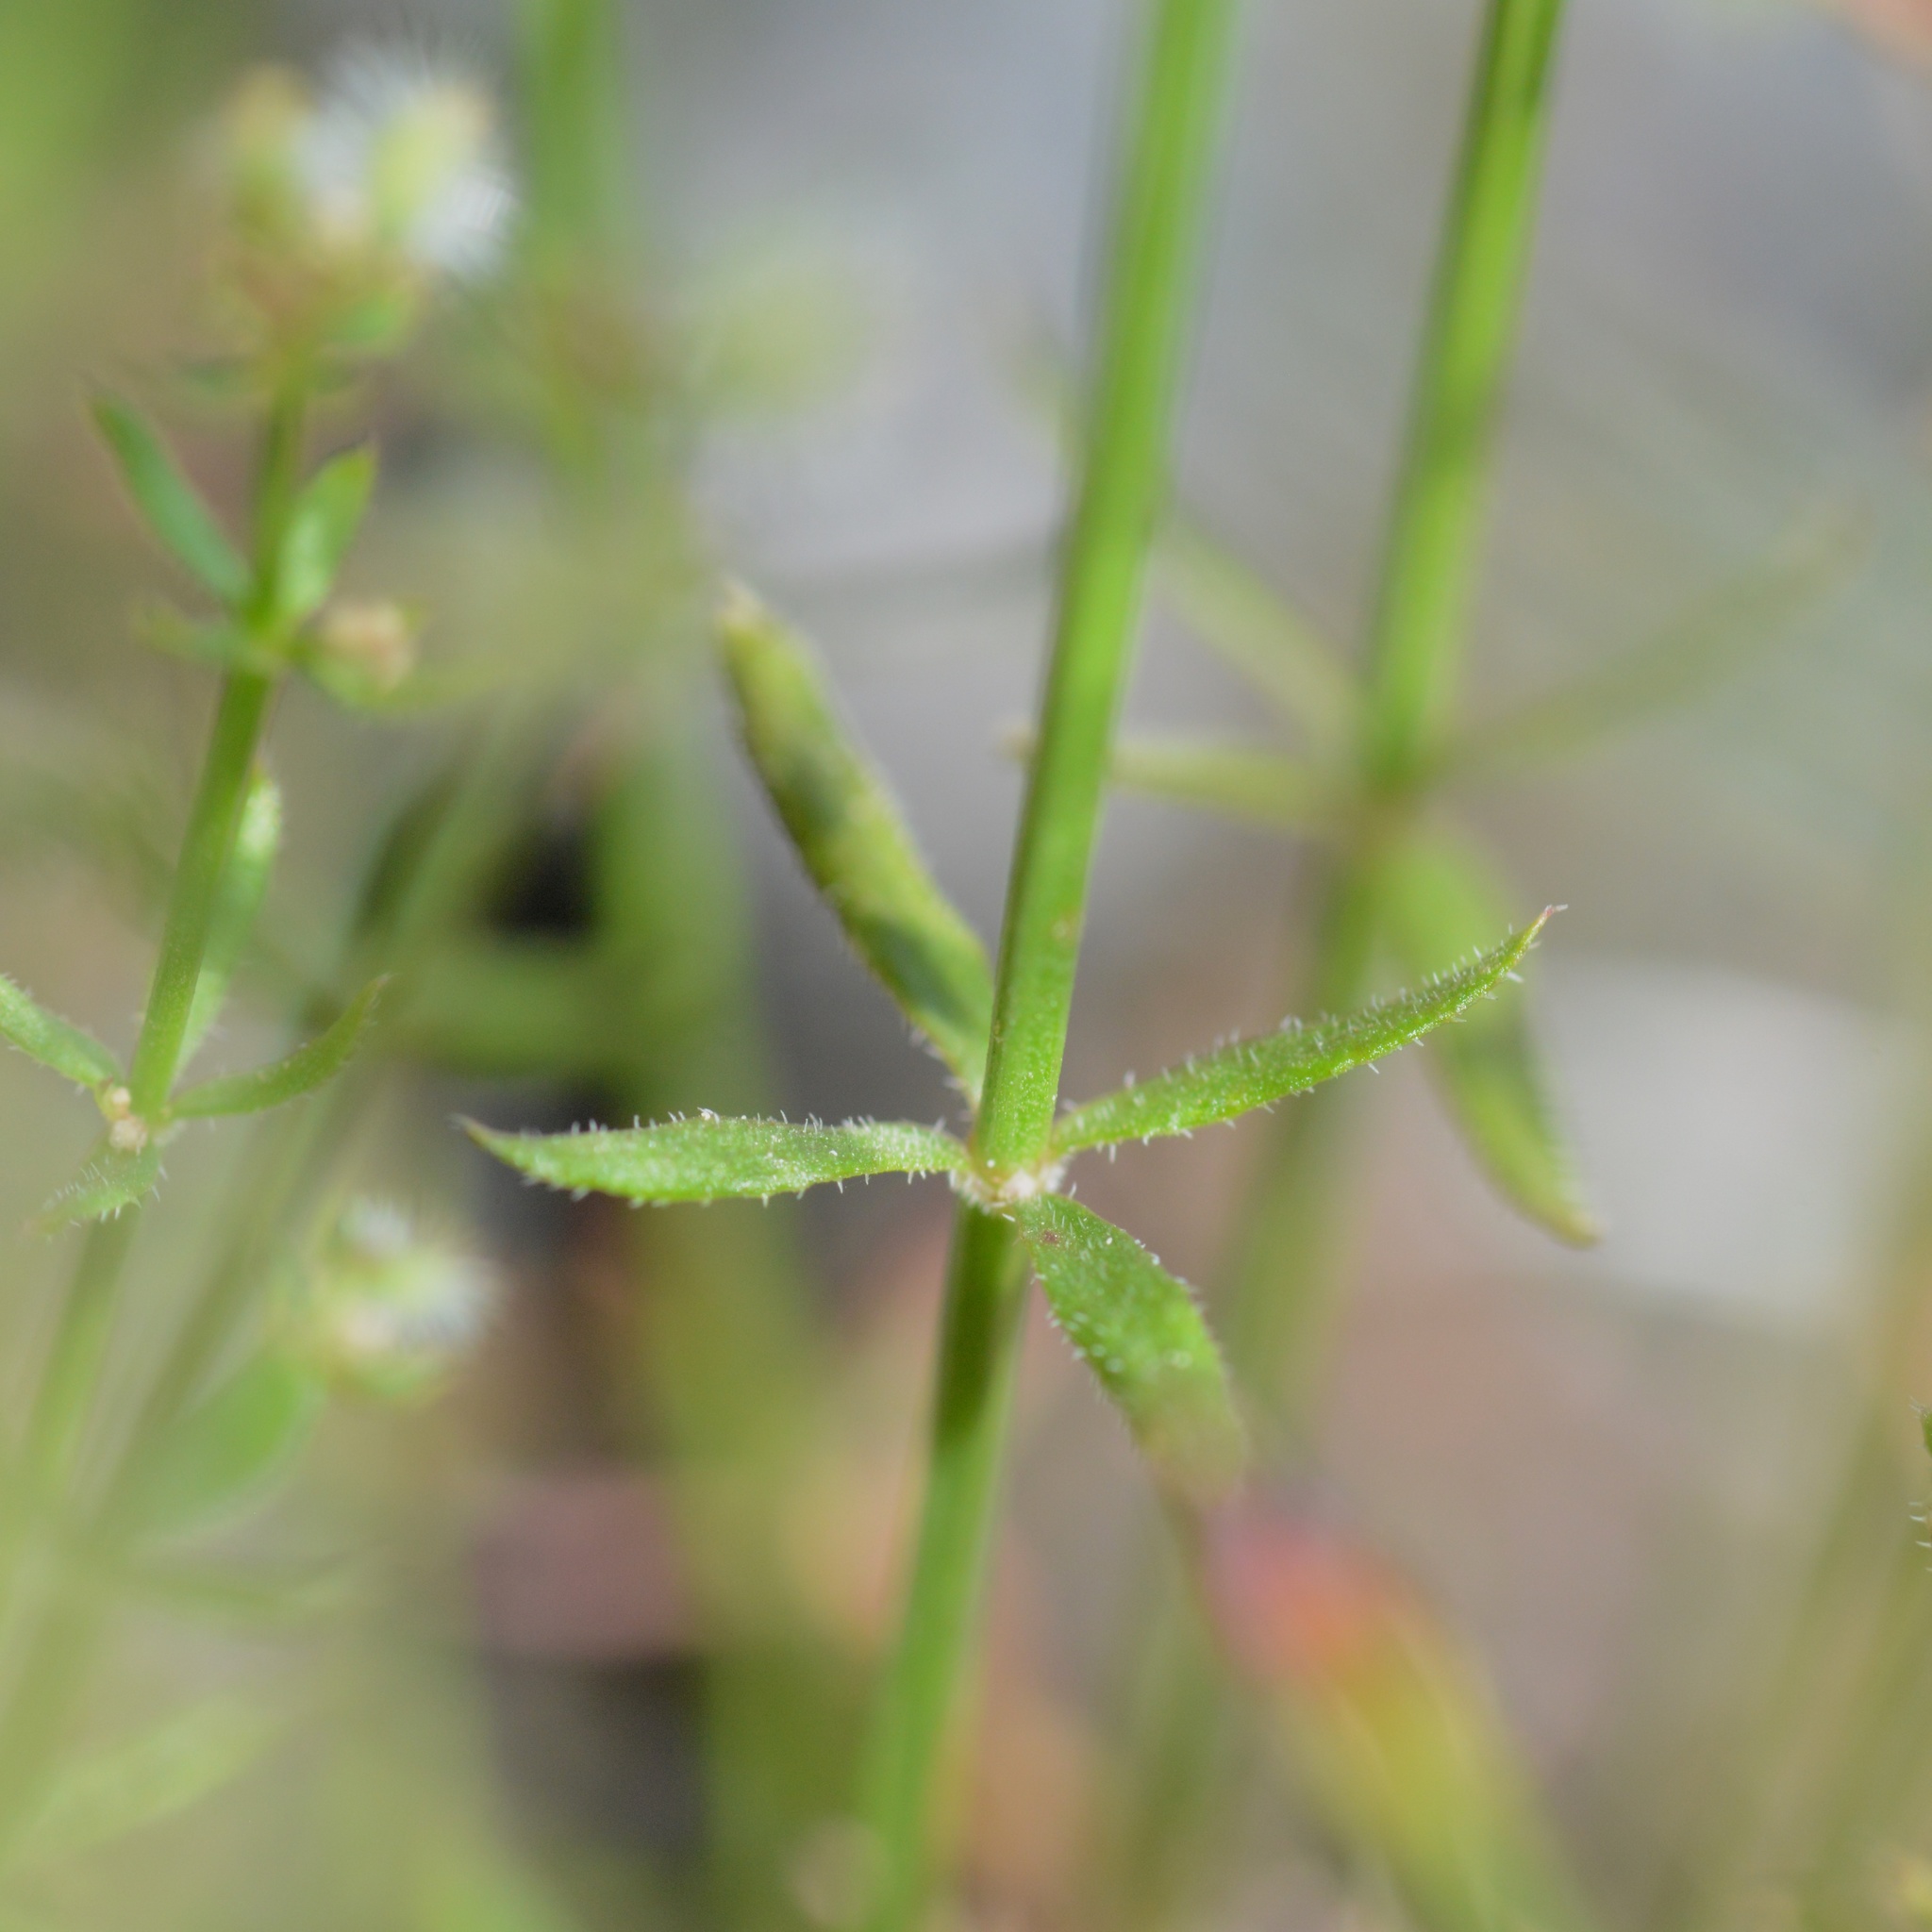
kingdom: Plantae
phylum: Tracheophyta
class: Magnoliopsida
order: Gentianales
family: Rubiaceae
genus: Galium
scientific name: Galium angustifolium
